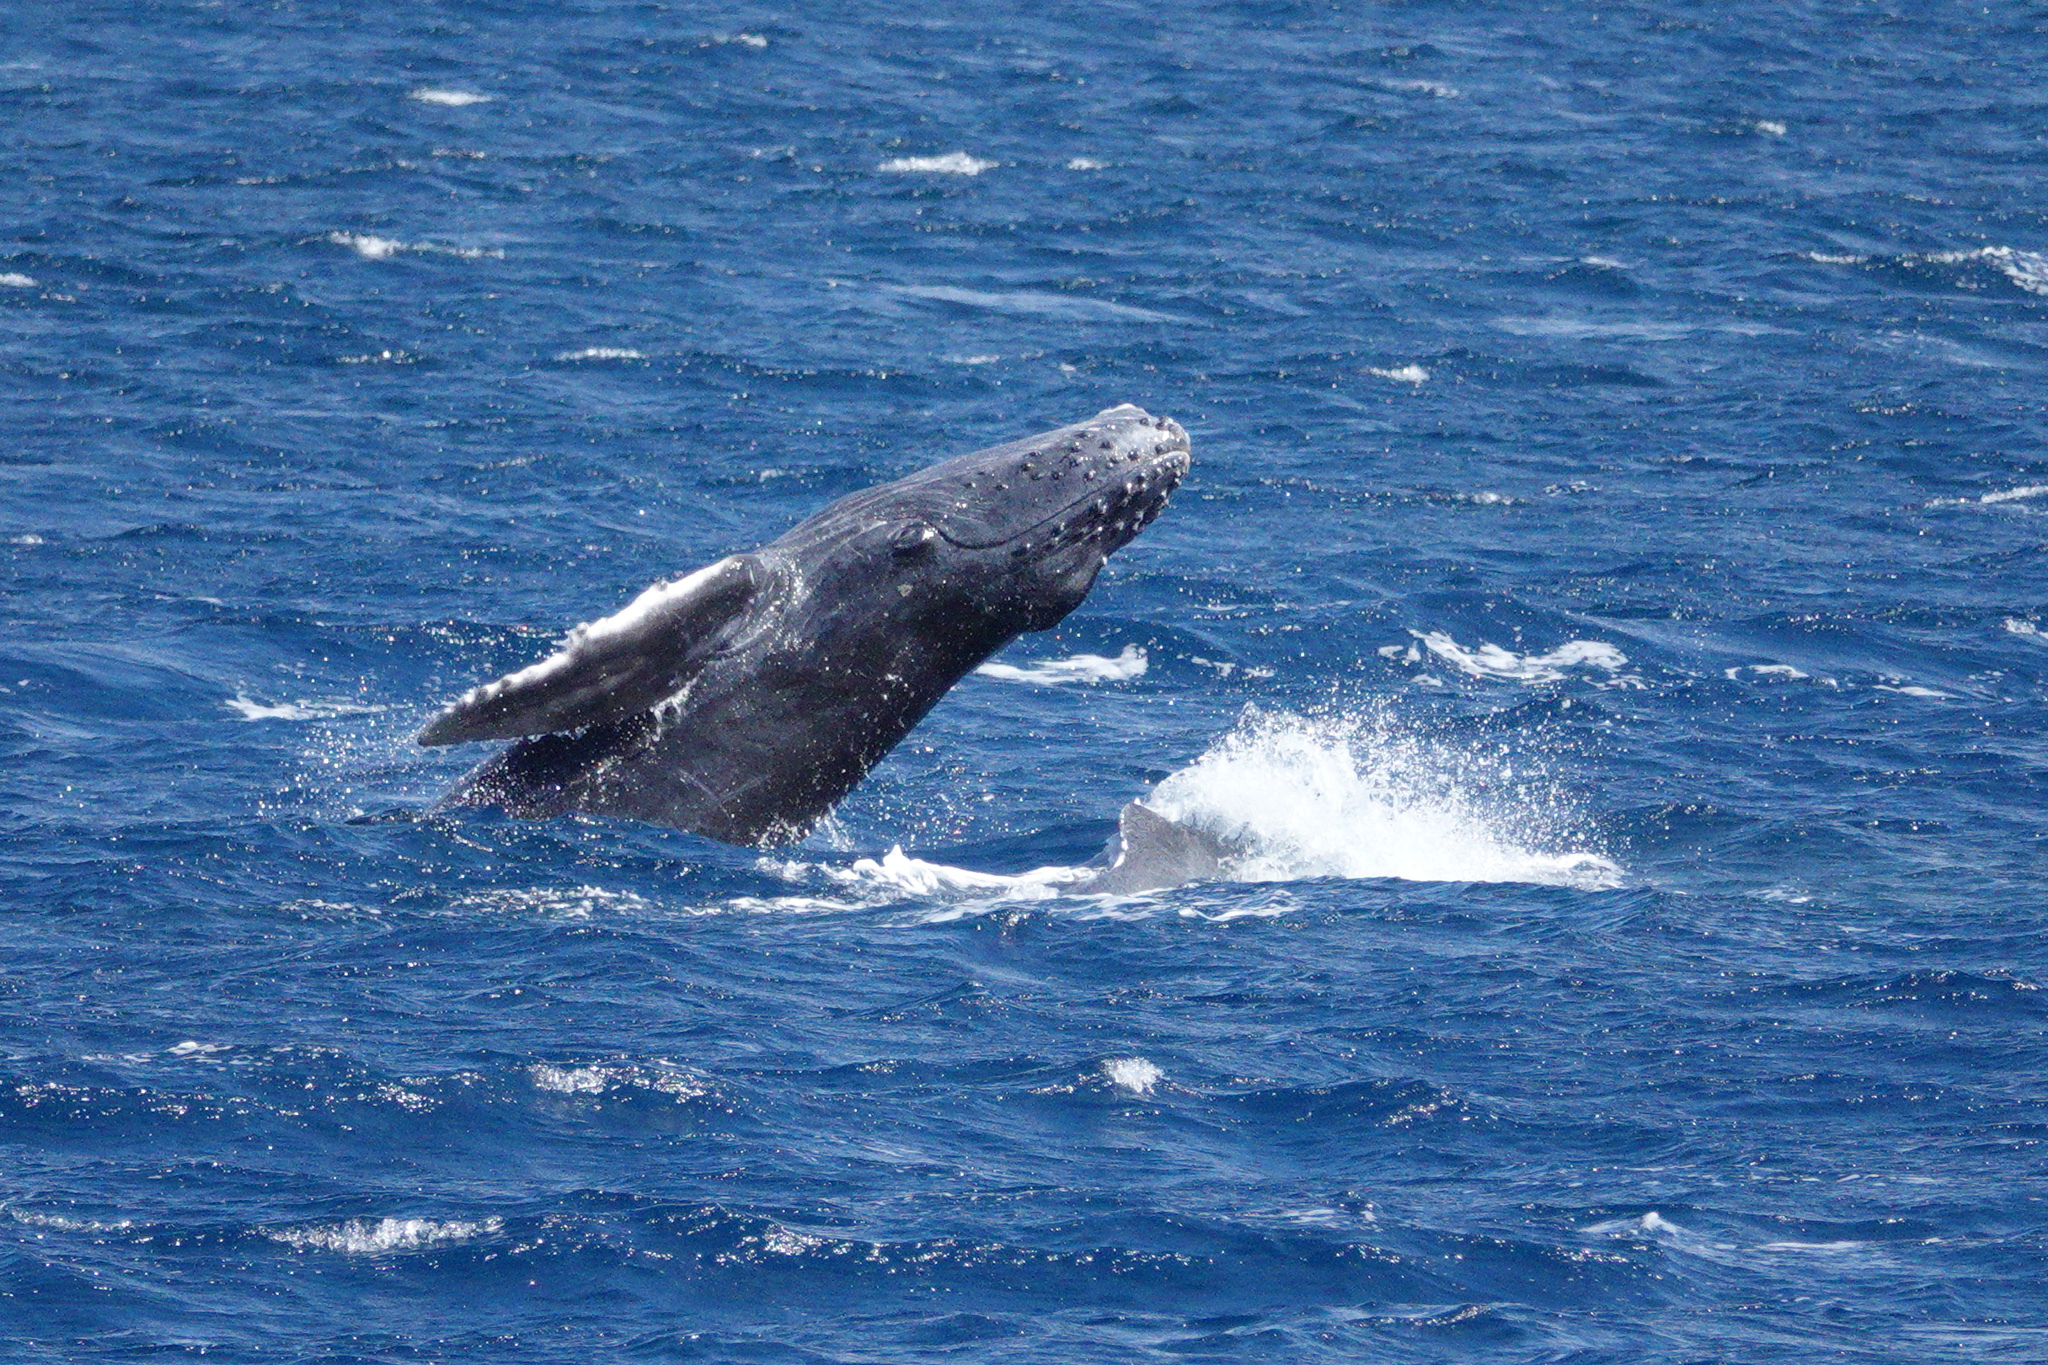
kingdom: Animalia
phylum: Chordata
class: Mammalia
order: Cetacea
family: Balaenopteridae
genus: Megaptera
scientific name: Megaptera novaeangliae
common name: Humpback whale
